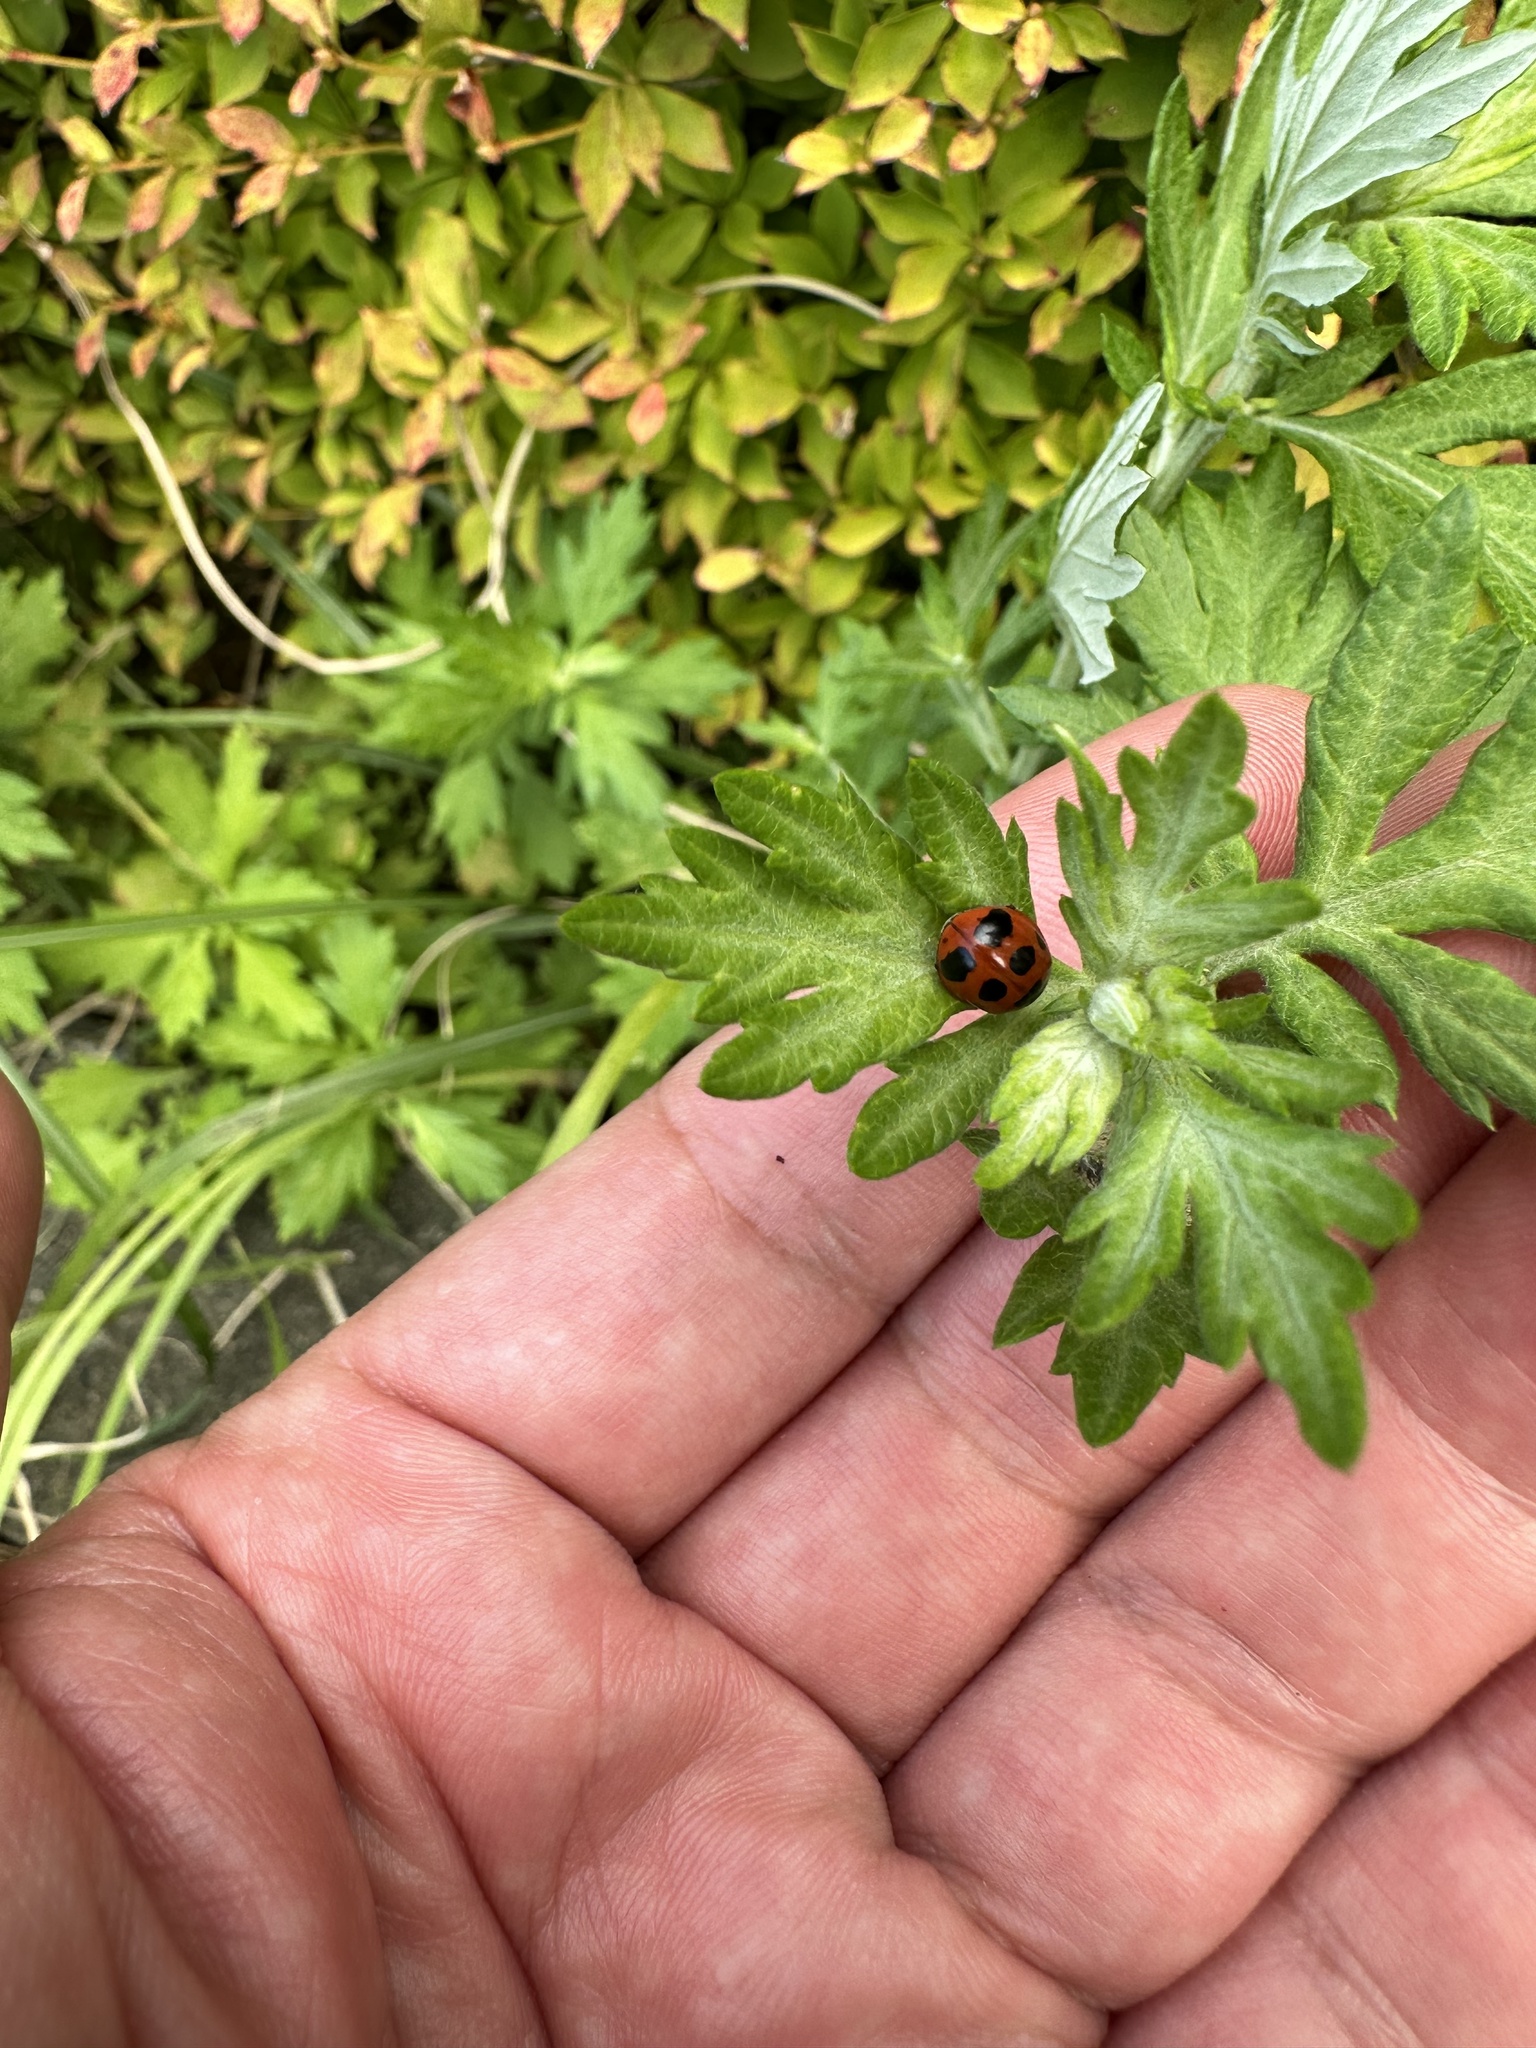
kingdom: Animalia
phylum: Arthropoda
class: Insecta
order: Coleoptera
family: Coccinellidae
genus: Coccinella
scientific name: Coccinella septempunctata
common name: Sevenspotted lady beetle
